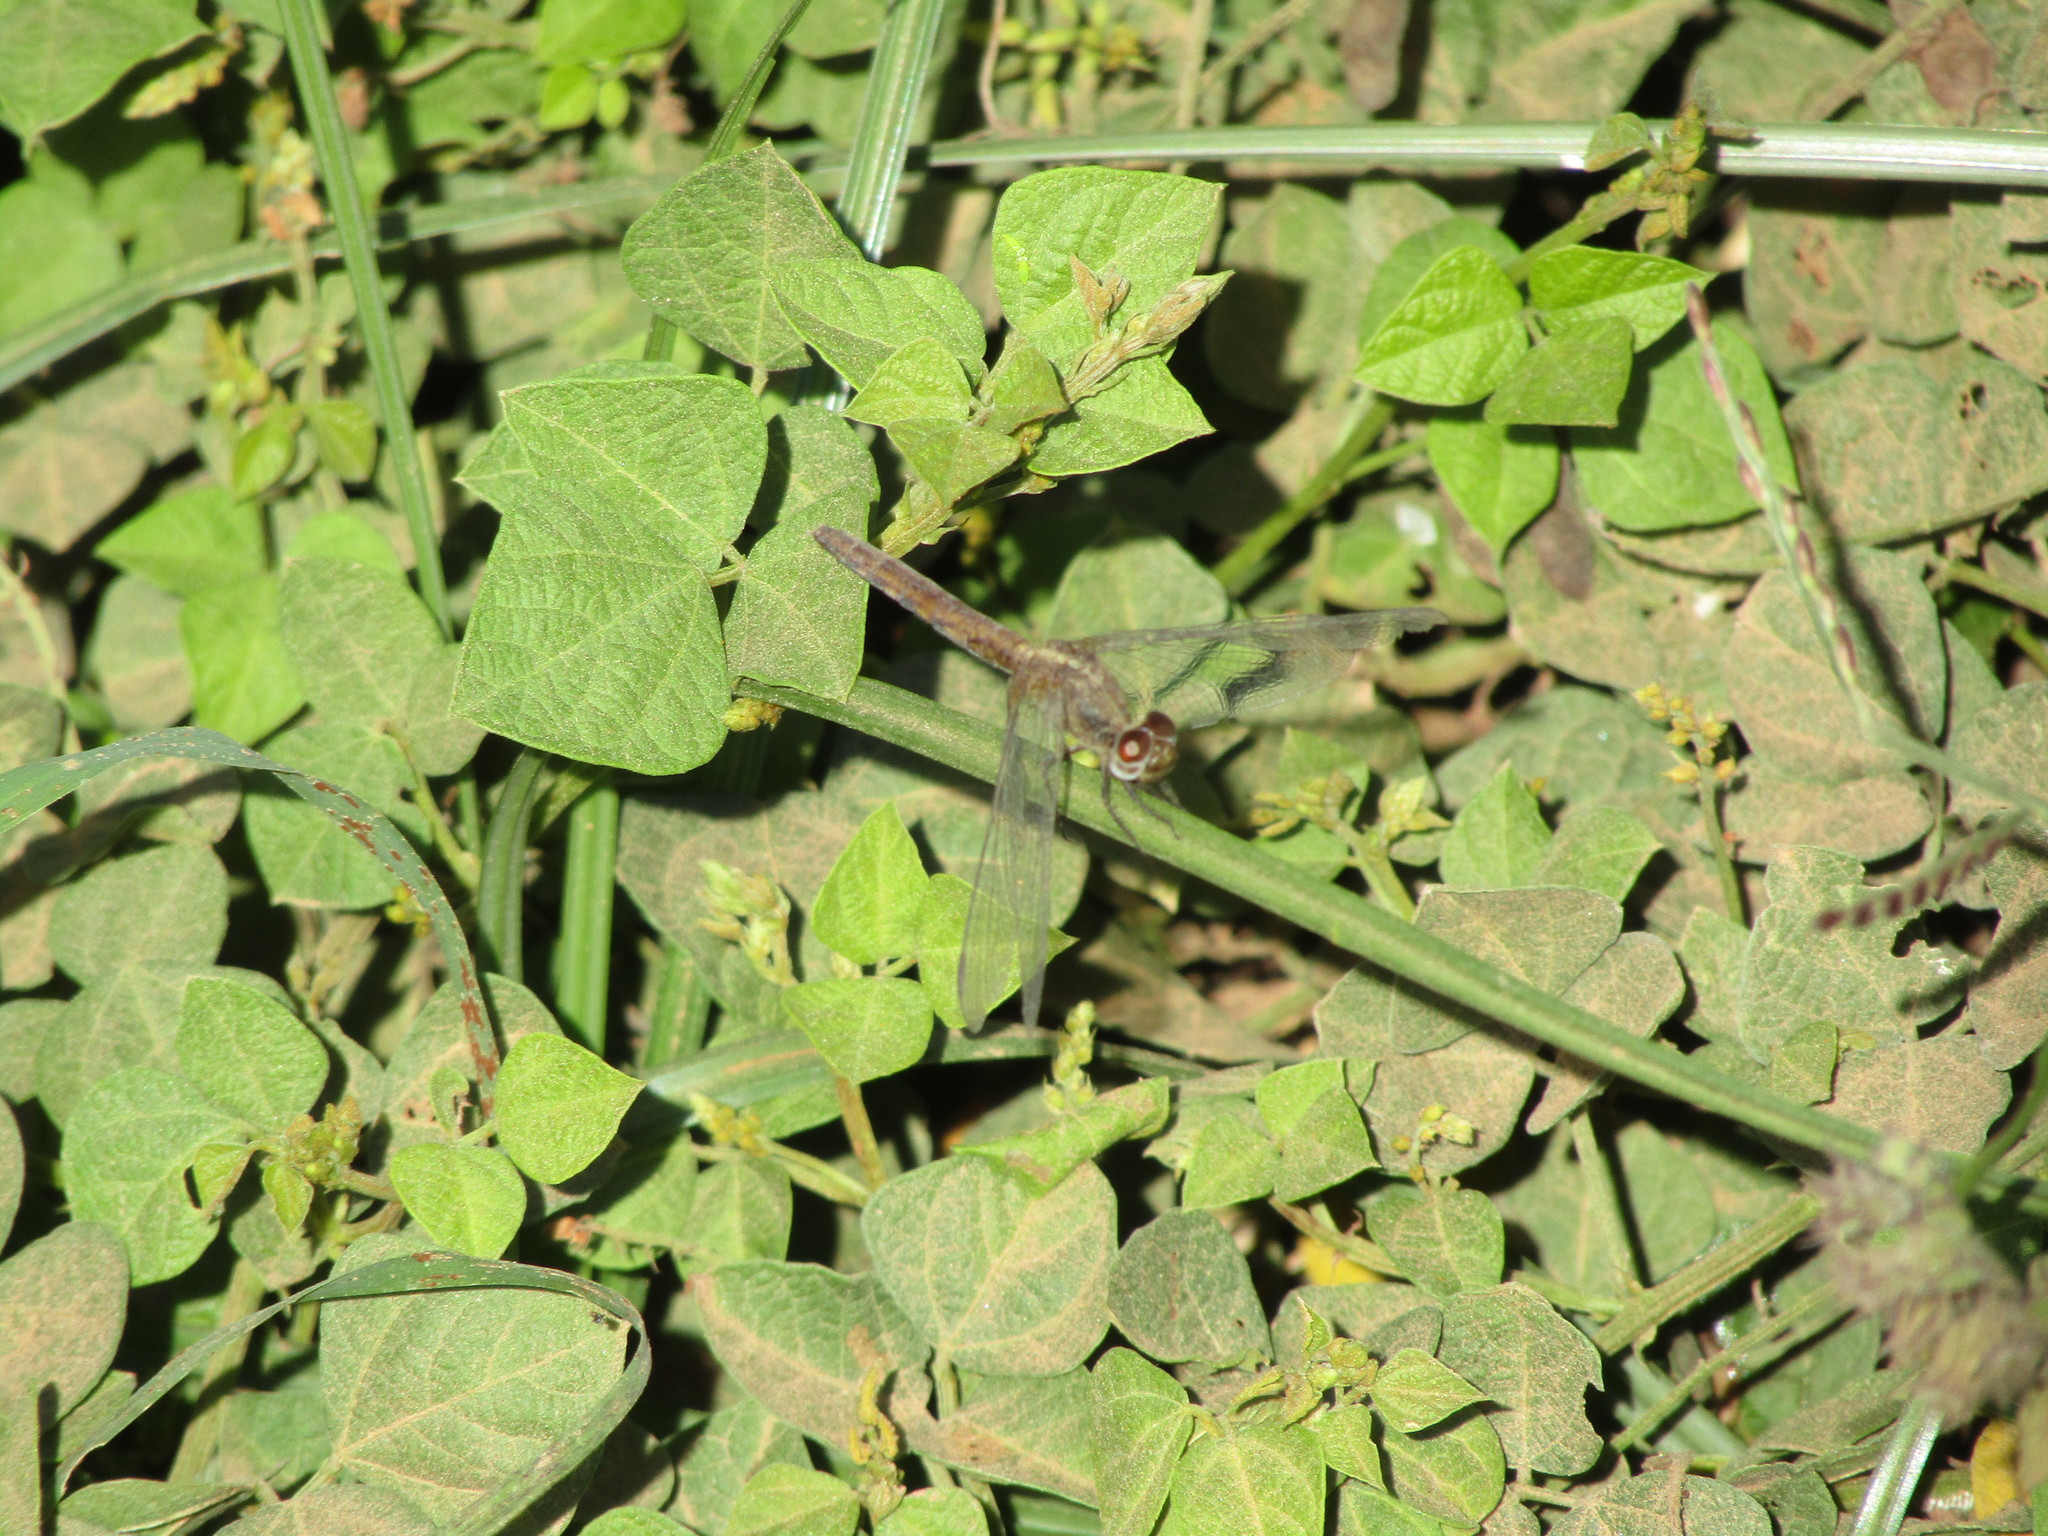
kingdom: Animalia
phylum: Arthropoda
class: Insecta
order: Odonata
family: Libellulidae
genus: Erythemis
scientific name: Erythemis peruviana
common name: Flame-tailed pondhawk
